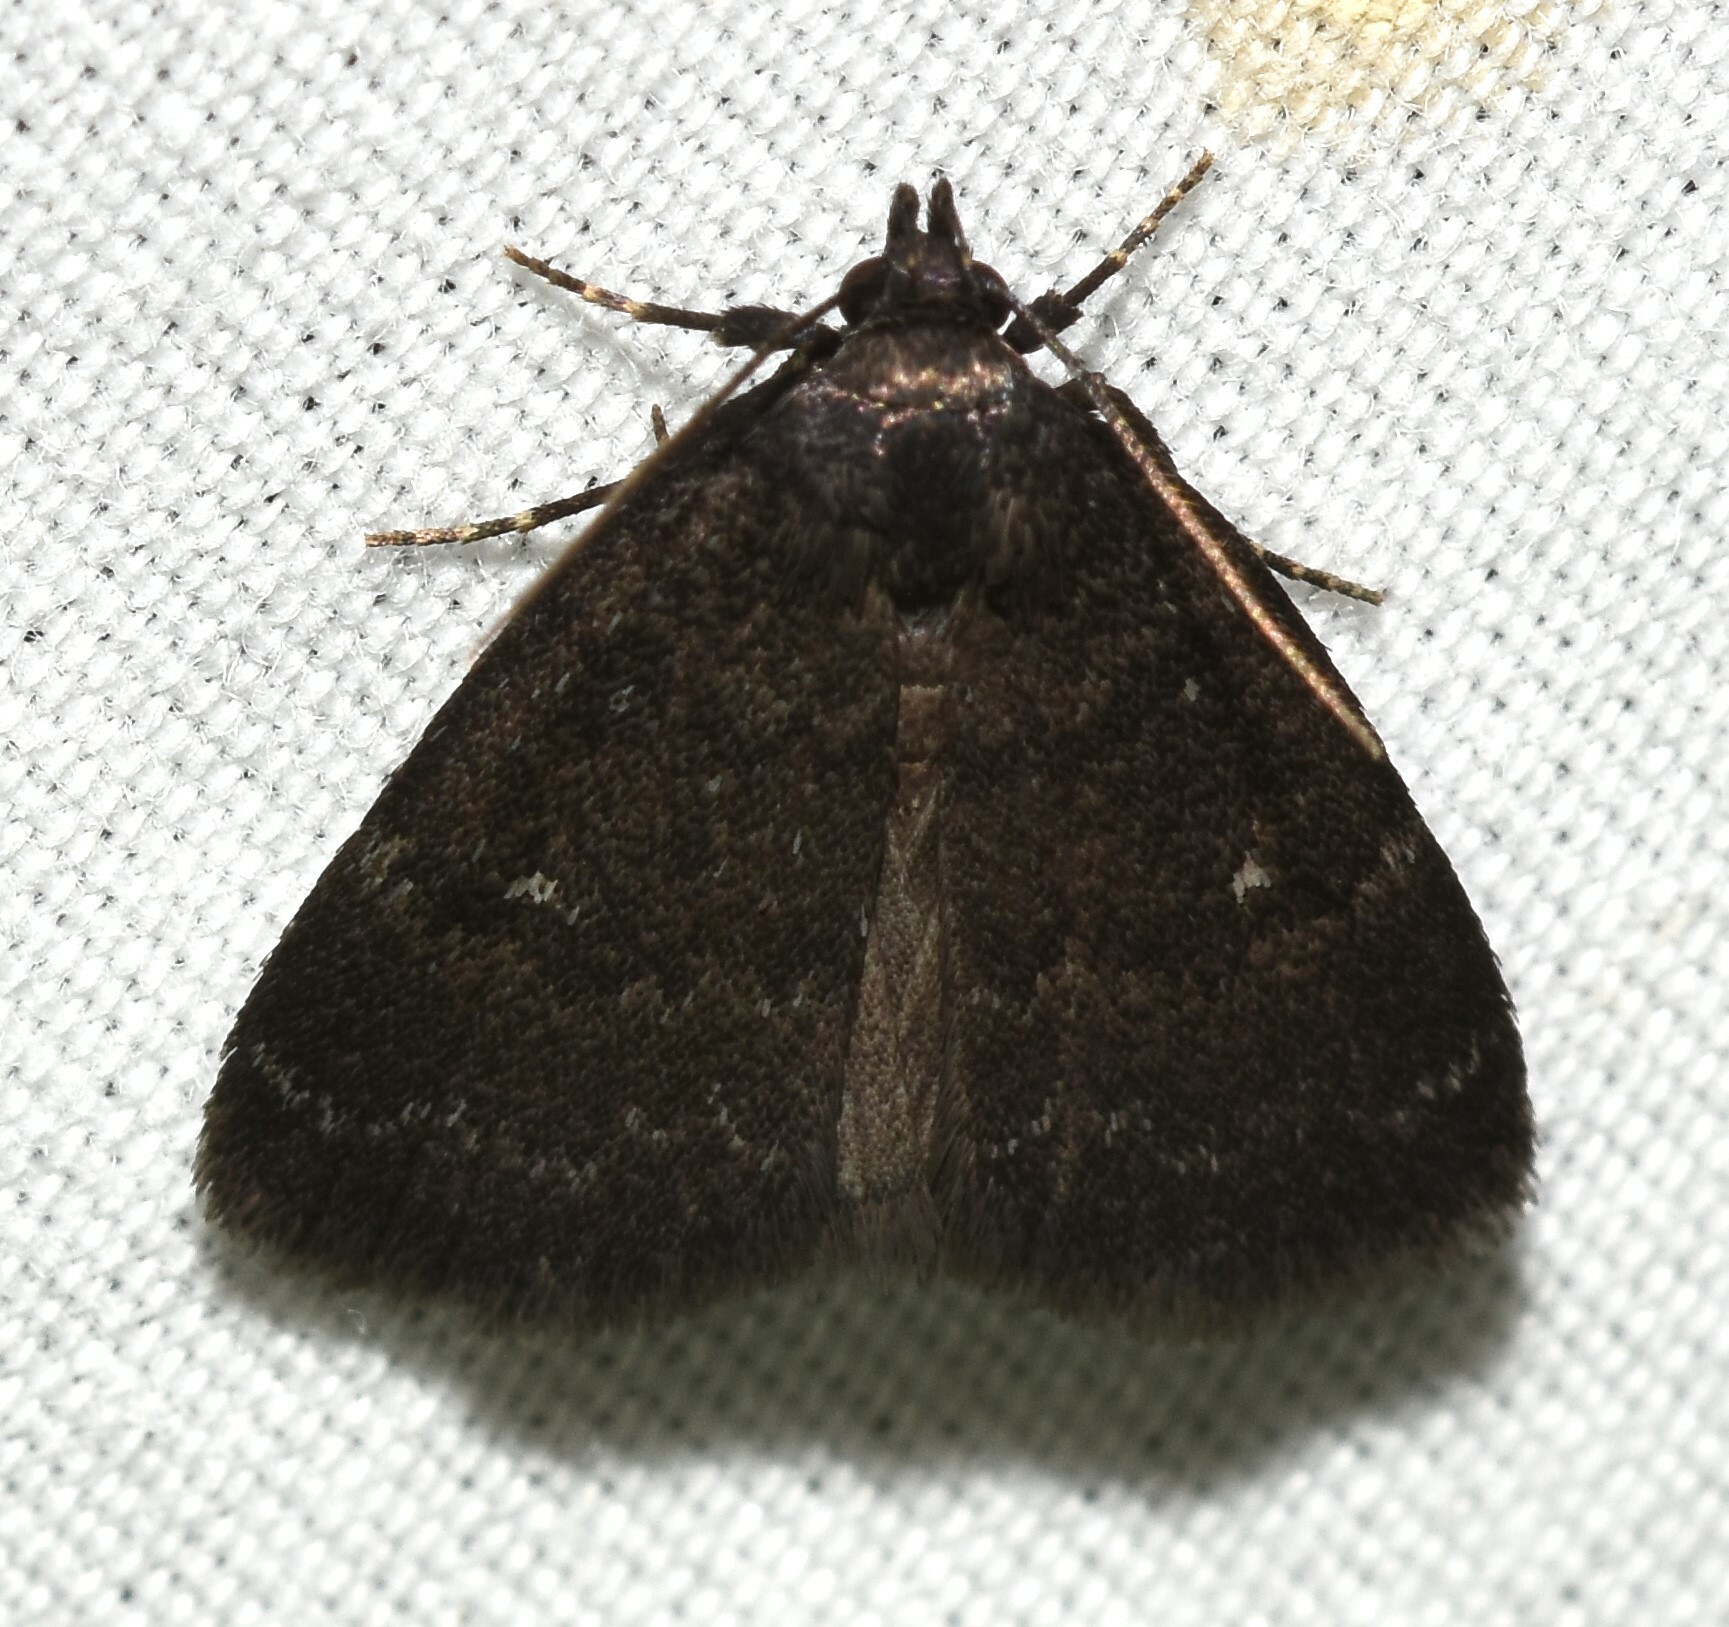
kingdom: Animalia
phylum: Arthropoda
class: Insecta
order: Lepidoptera
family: Erebidae
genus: Idia
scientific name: Idia rotundalis
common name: Rotund idia moth
